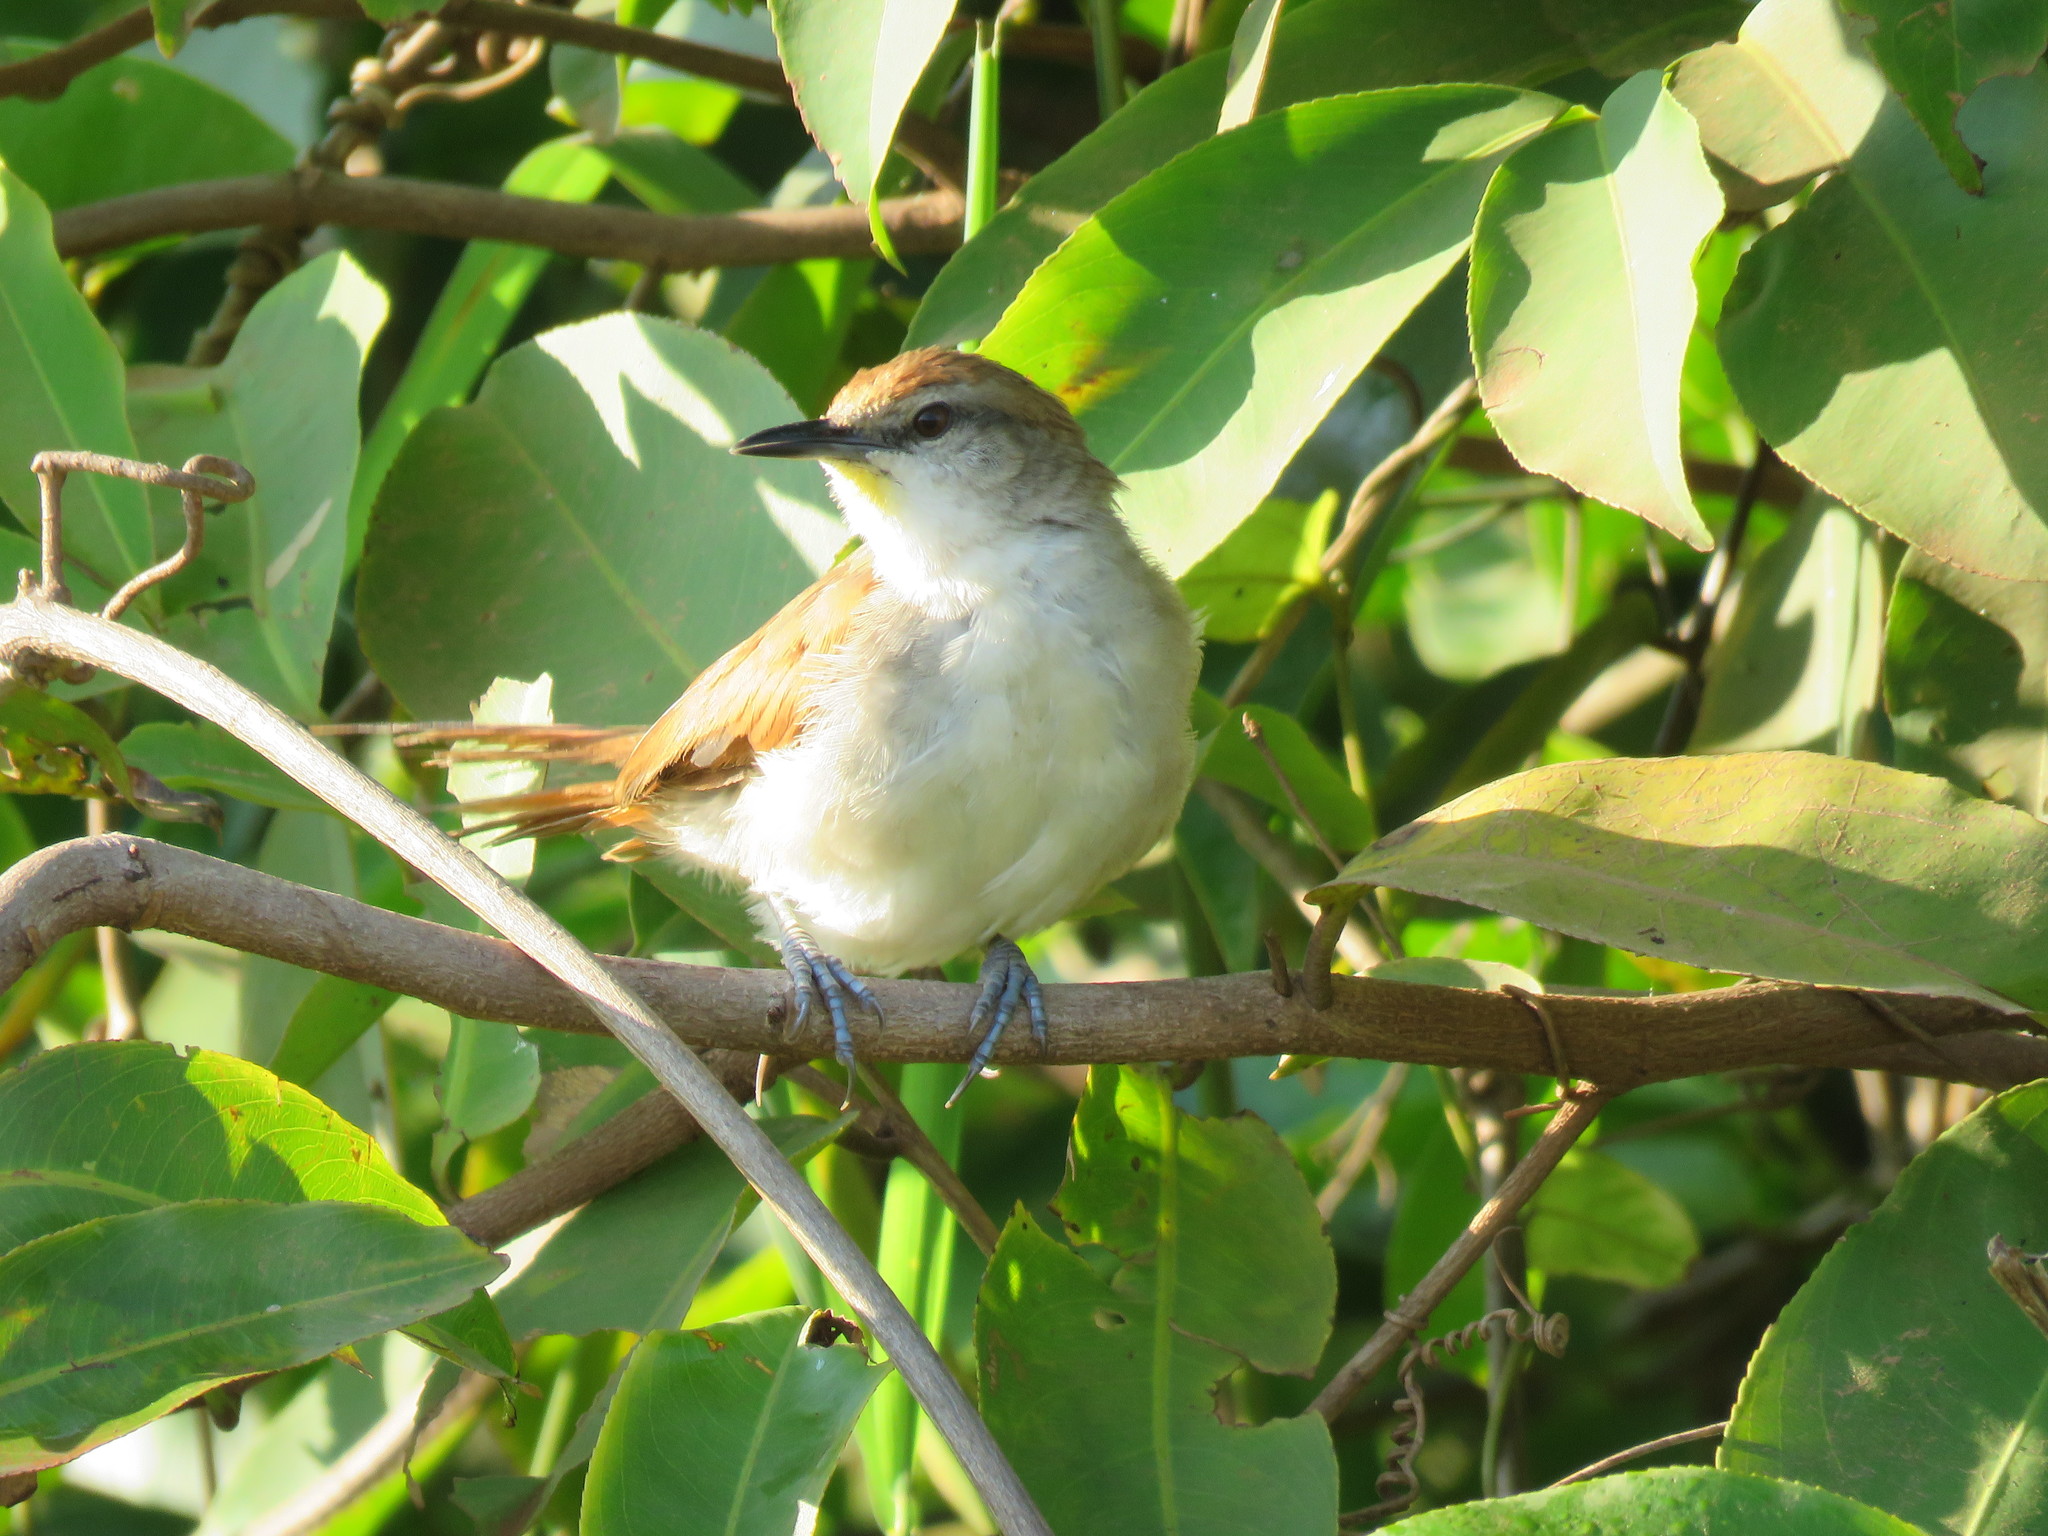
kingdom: Animalia
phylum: Chordata
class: Aves
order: Passeriformes
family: Furnariidae
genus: Certhiaxis
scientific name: Certhiaxis cinnamomeus
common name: Yellow-chinned spinetail
